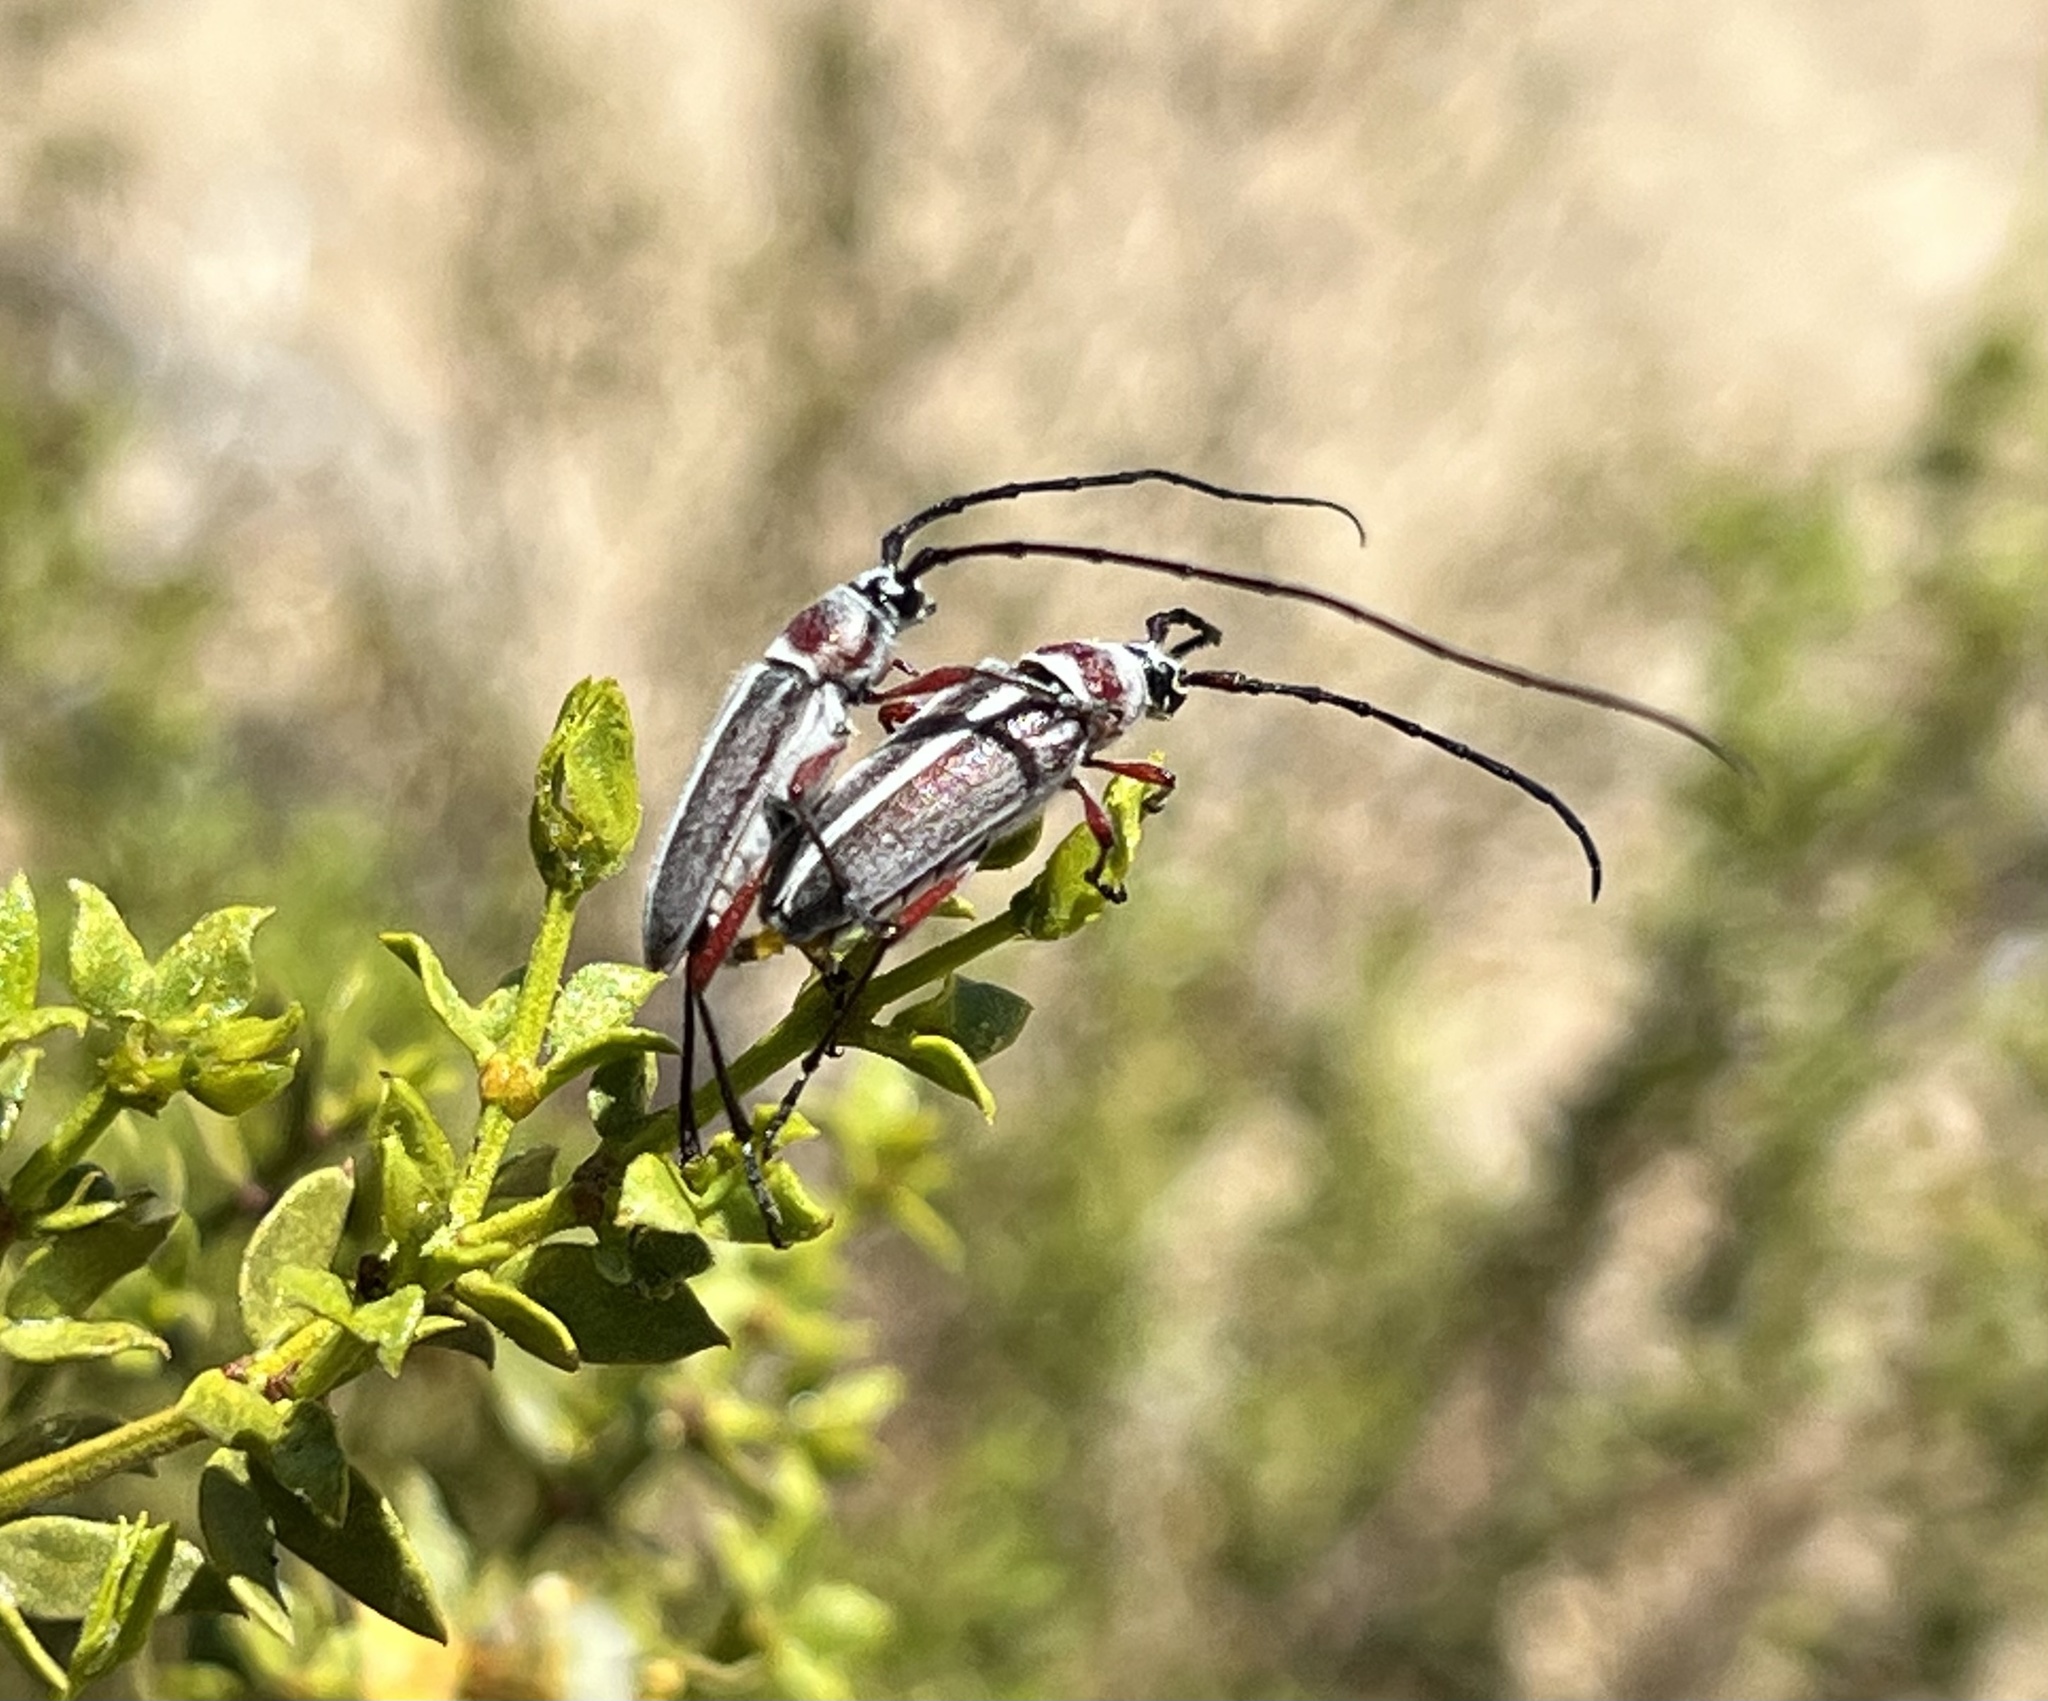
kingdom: Animalia
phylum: Arthropoda
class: Insecta
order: Coleoptera
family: Cerambycidae
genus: Plionoma
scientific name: Plionoma rubens
